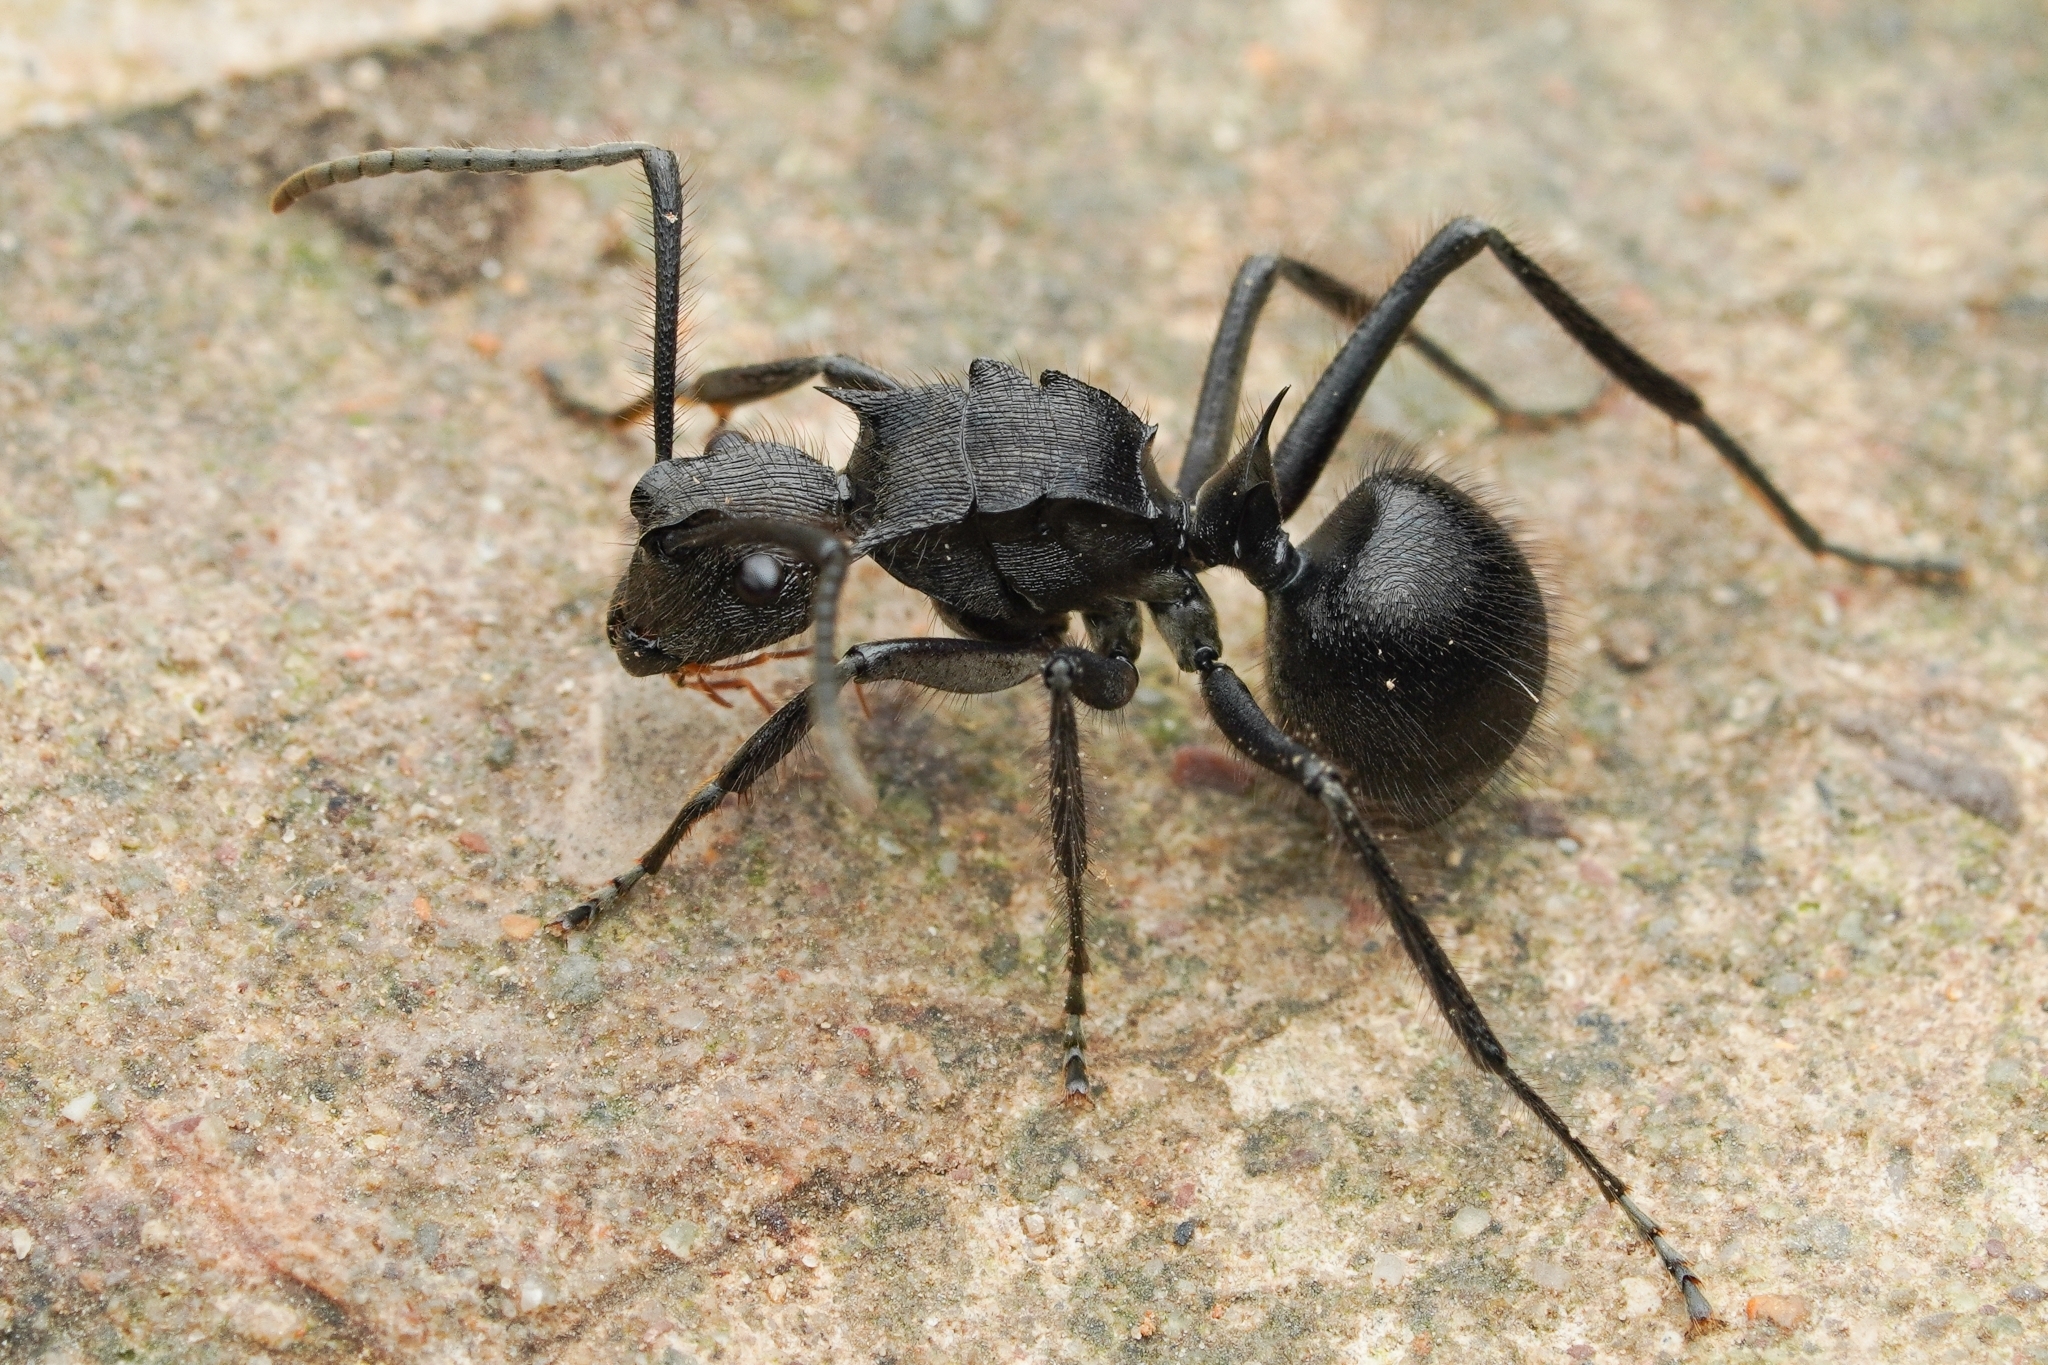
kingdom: Animalia
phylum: Arthropoda
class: Insecta
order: Hymenoptera
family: Formicidae
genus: Polyrhachis
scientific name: Polyrhachis striatorugosus
